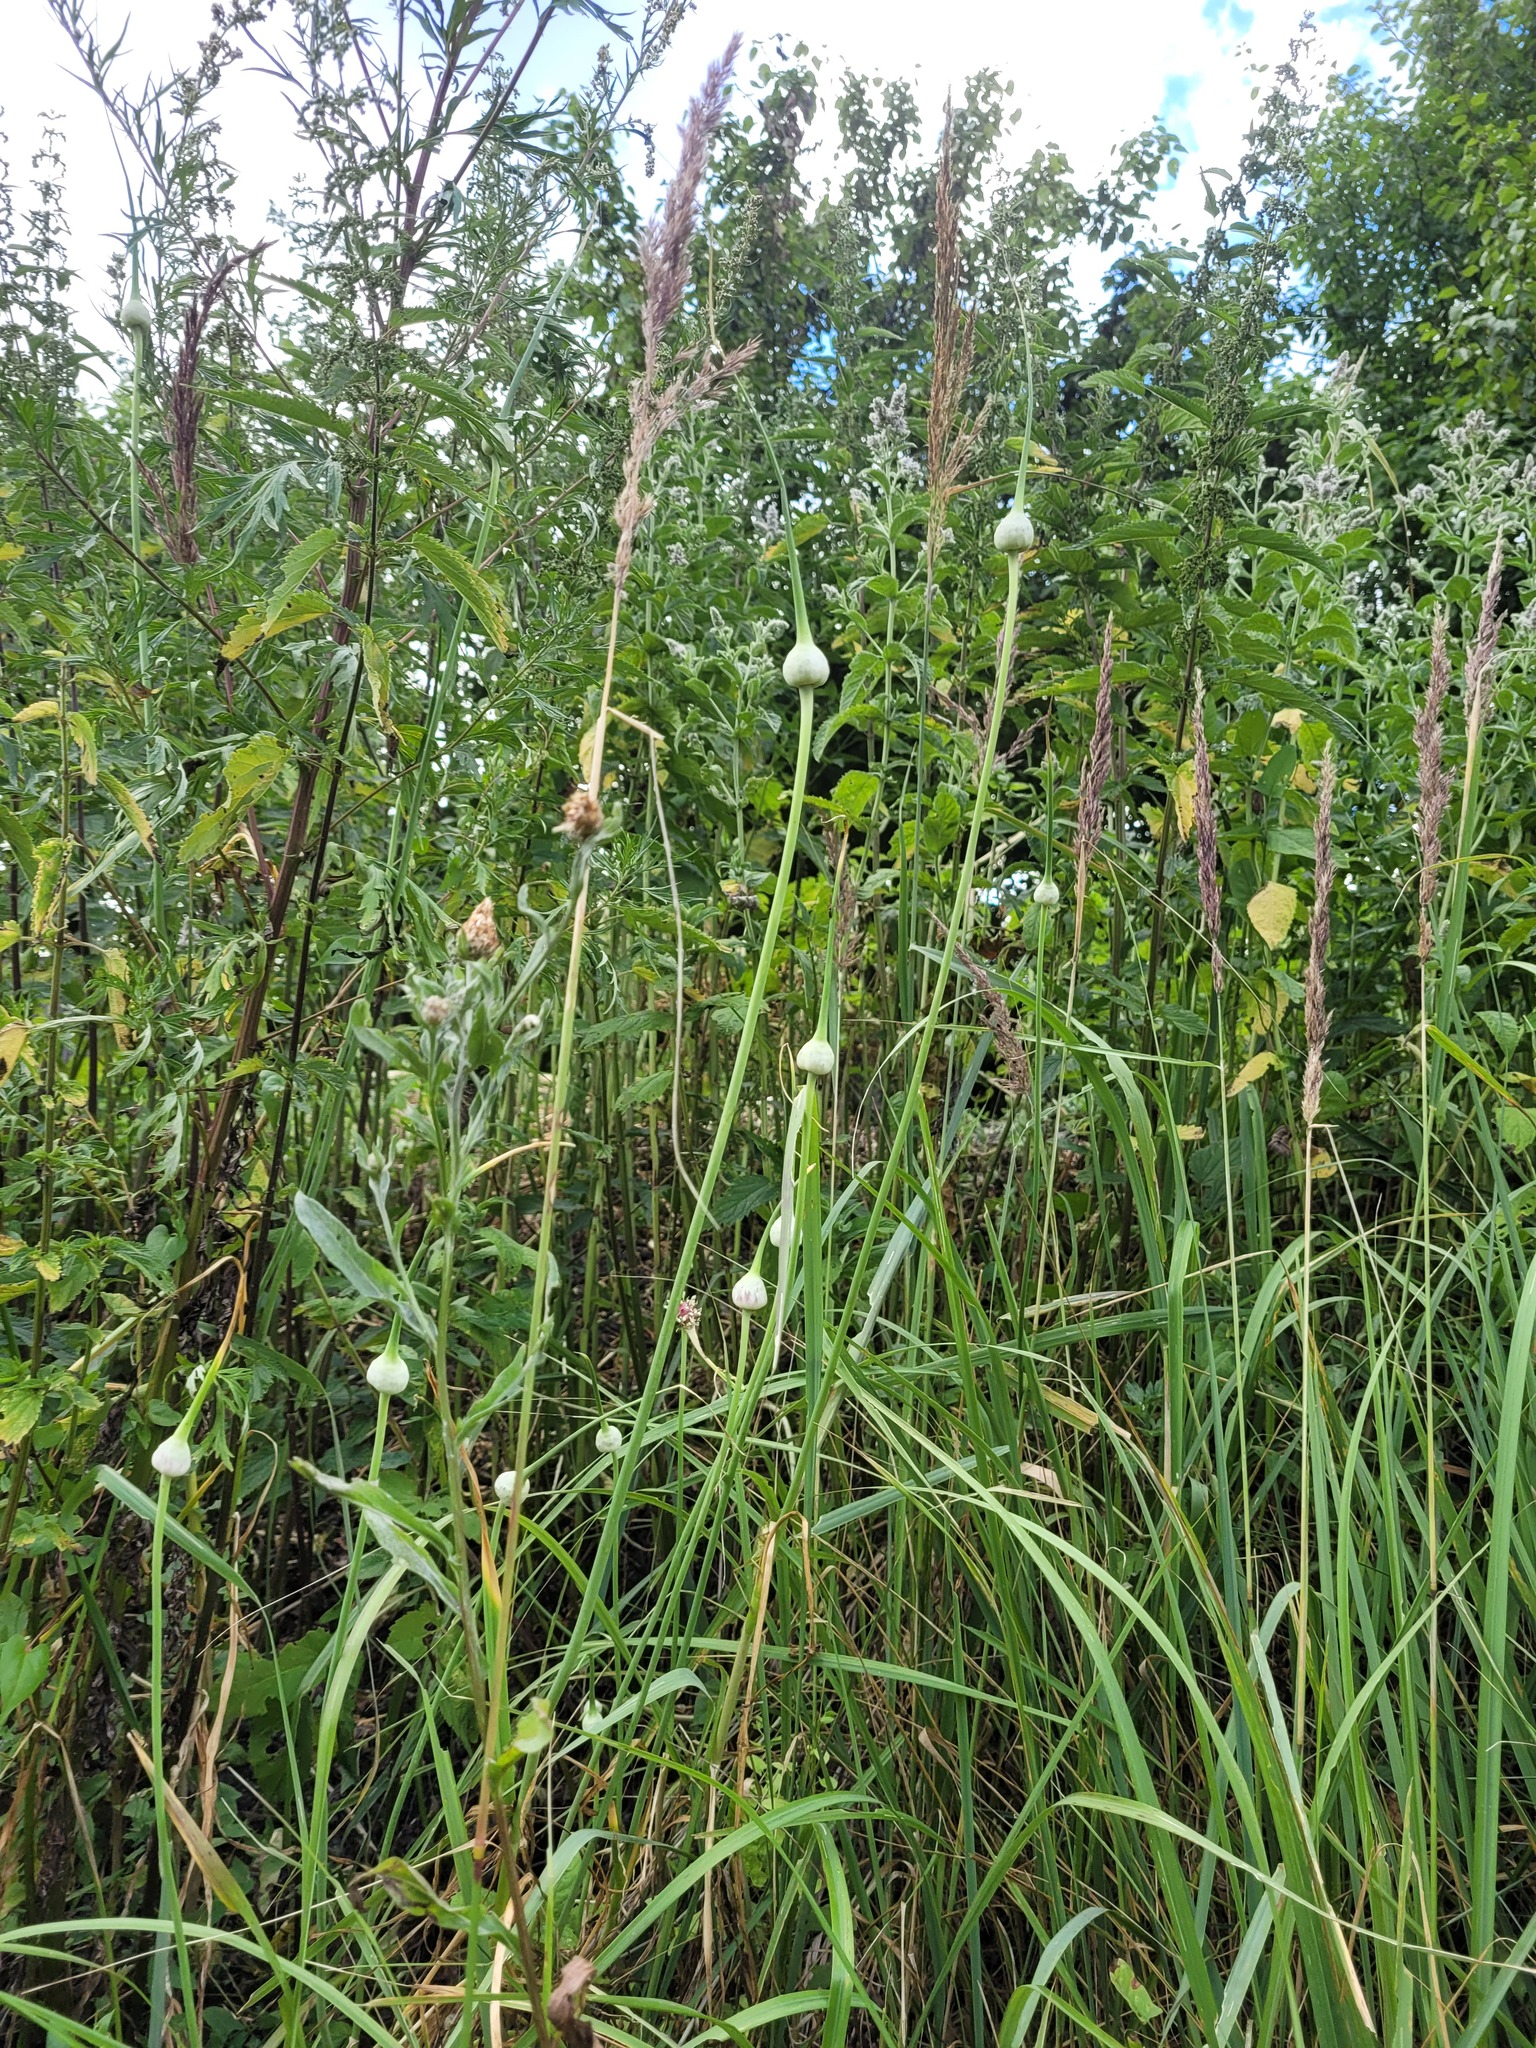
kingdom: Plantae
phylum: Tracheophyta
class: Liliopsida
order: Asparagales
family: Amaryllidaceae
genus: Allium
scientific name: Allium sativum
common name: Garlic
